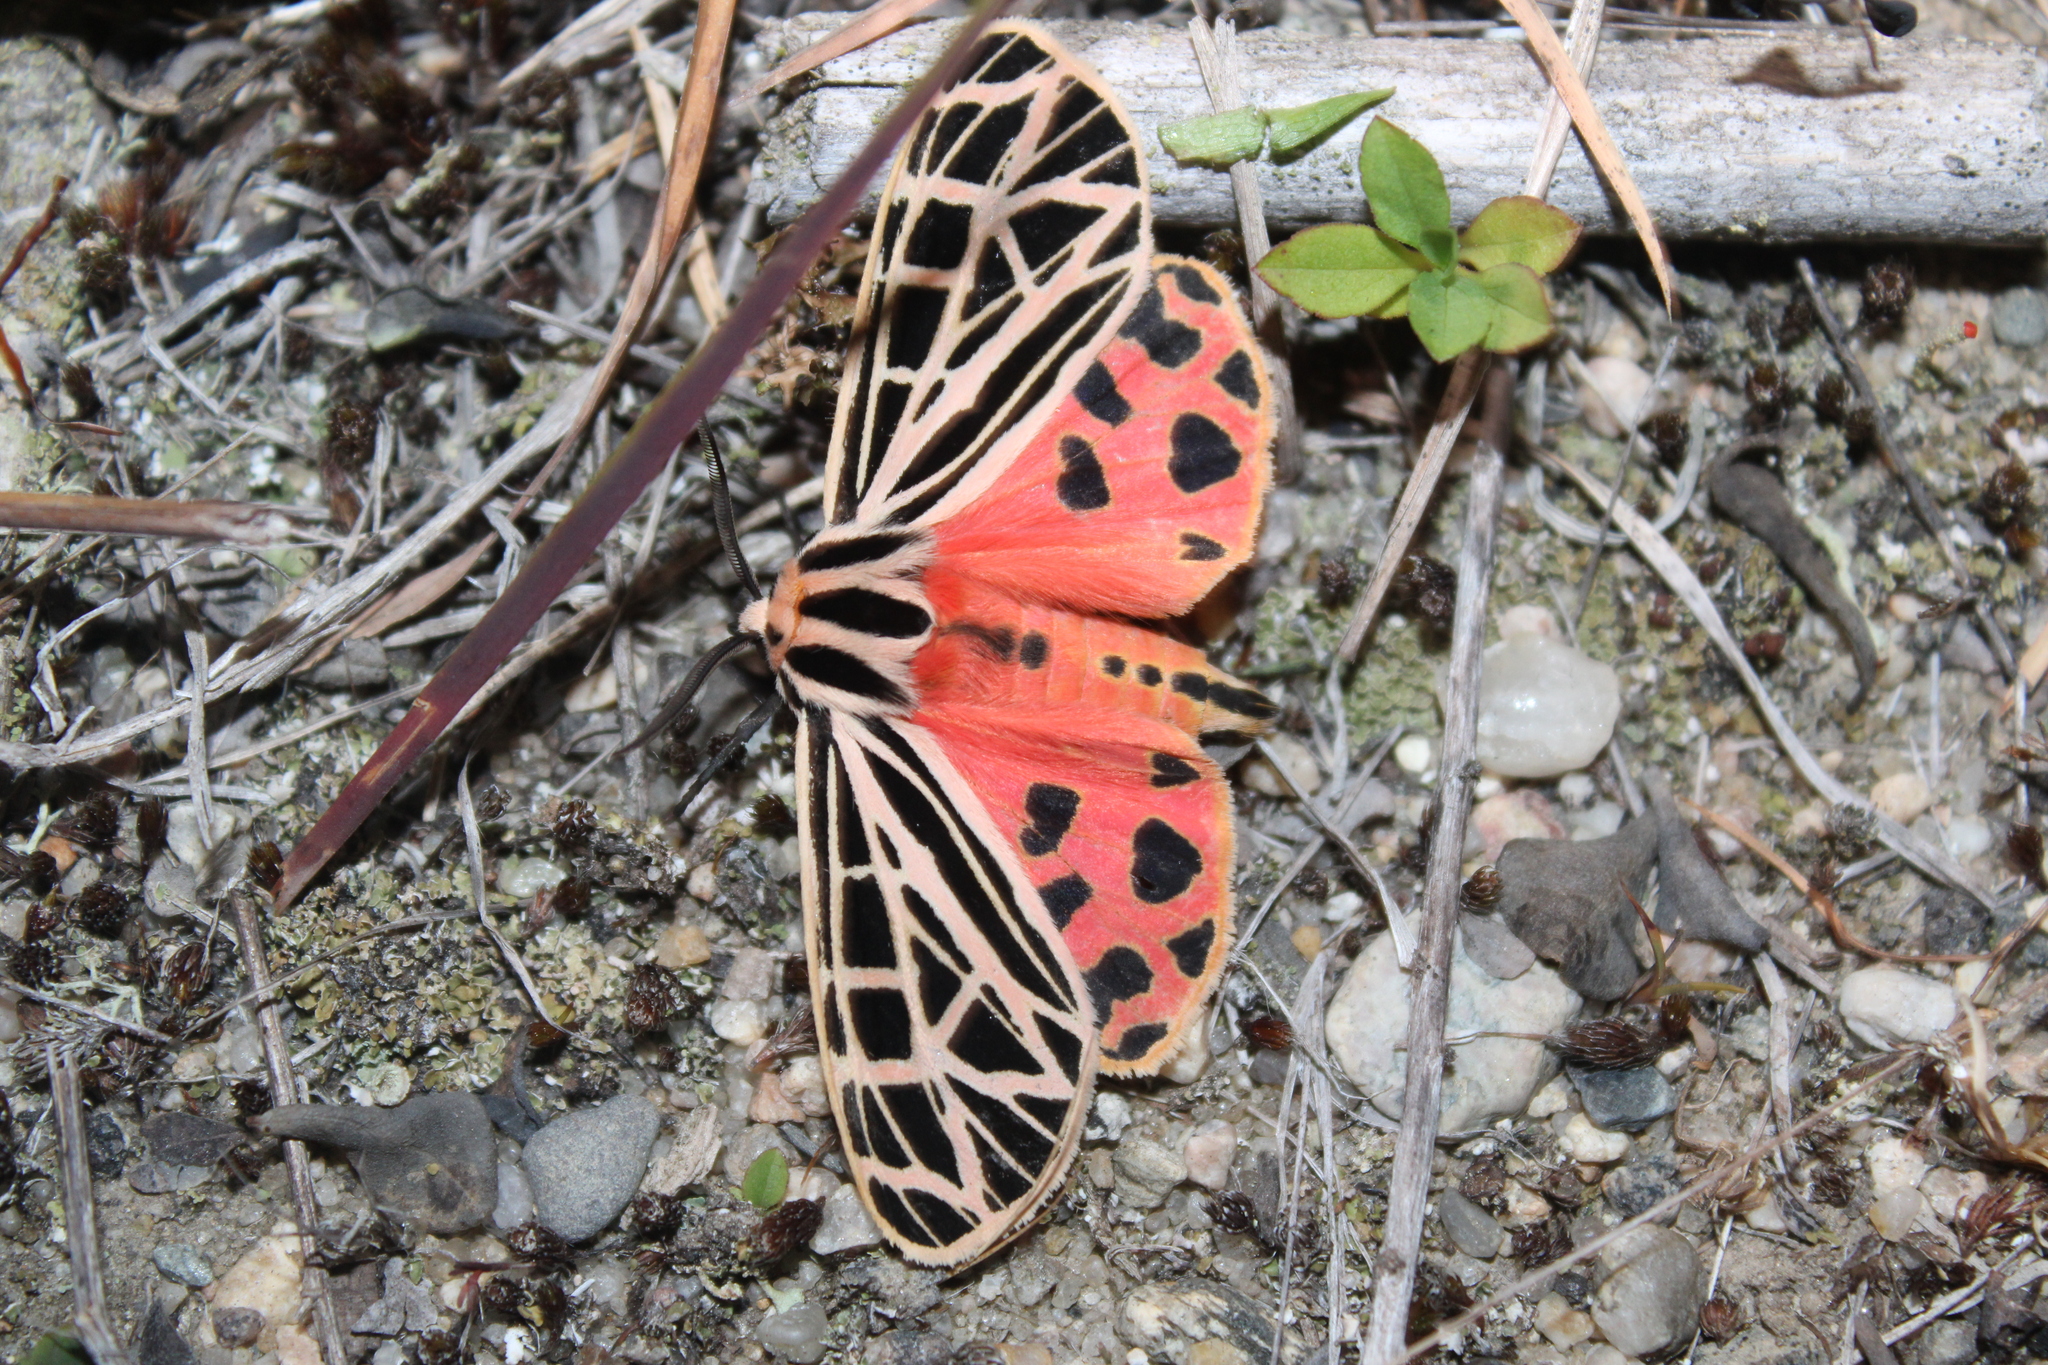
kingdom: Animalia
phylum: Arthropoda
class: Insecta
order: Lepidoptera
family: Erebidae
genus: Grammia
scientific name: Grammia virgo
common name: Virgin tiger moth
